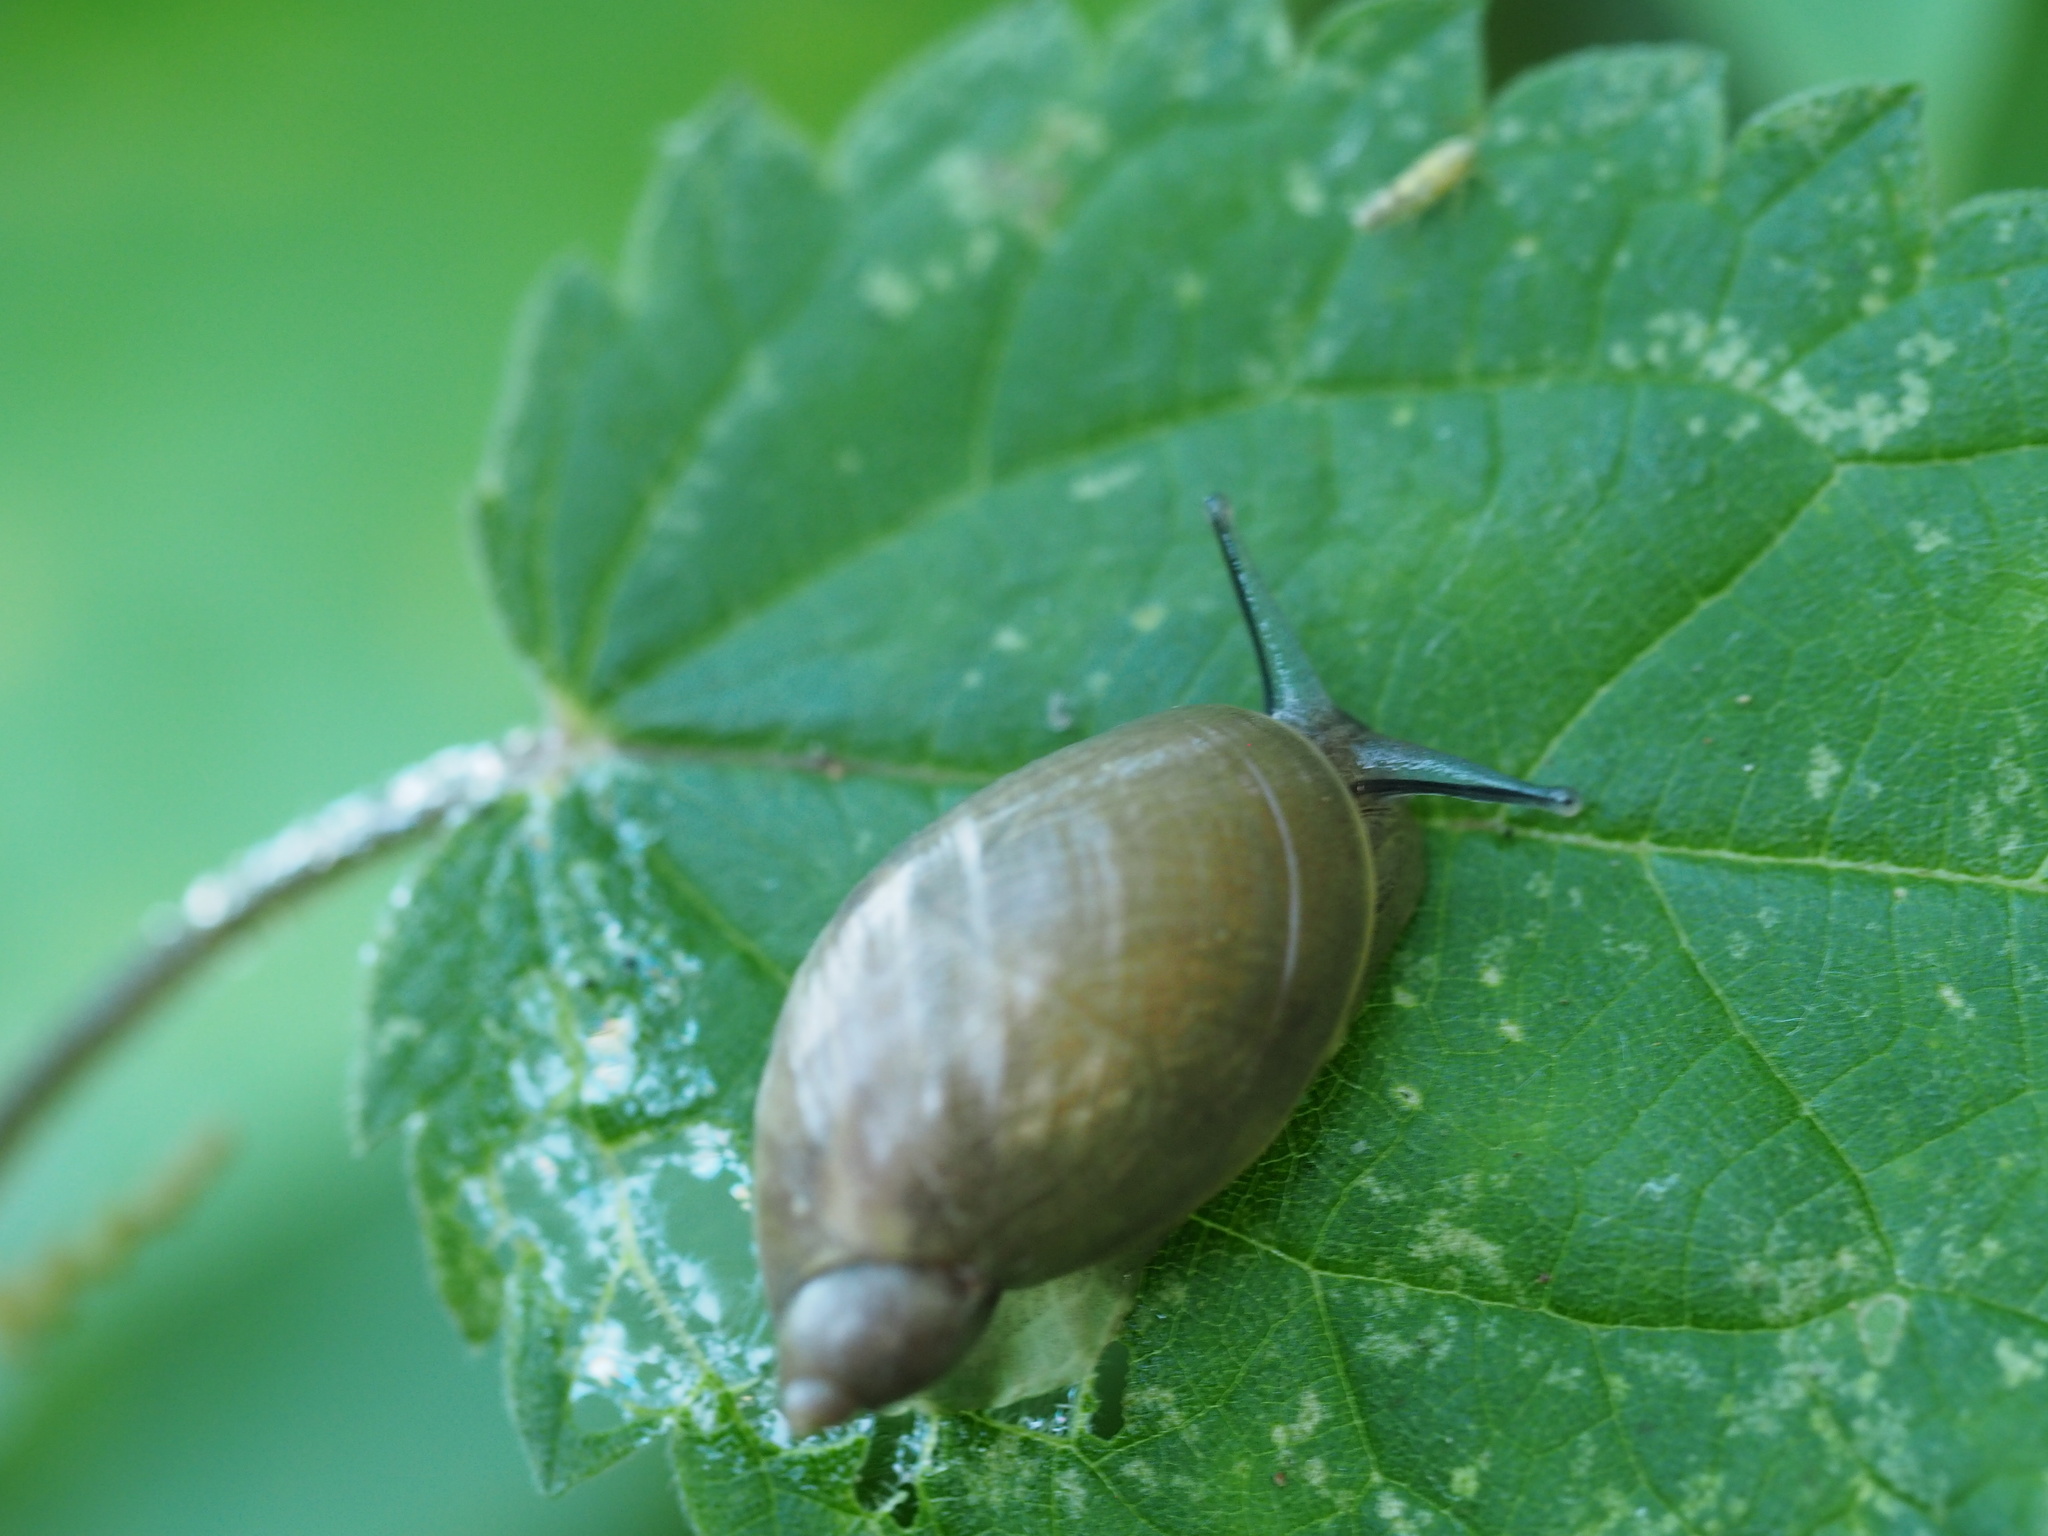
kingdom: Animalia
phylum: Mollusca
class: Gastropoda
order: Stylommatophora
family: Succineidae
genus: Succinea
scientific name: Succinea putris
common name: European ambersnail
